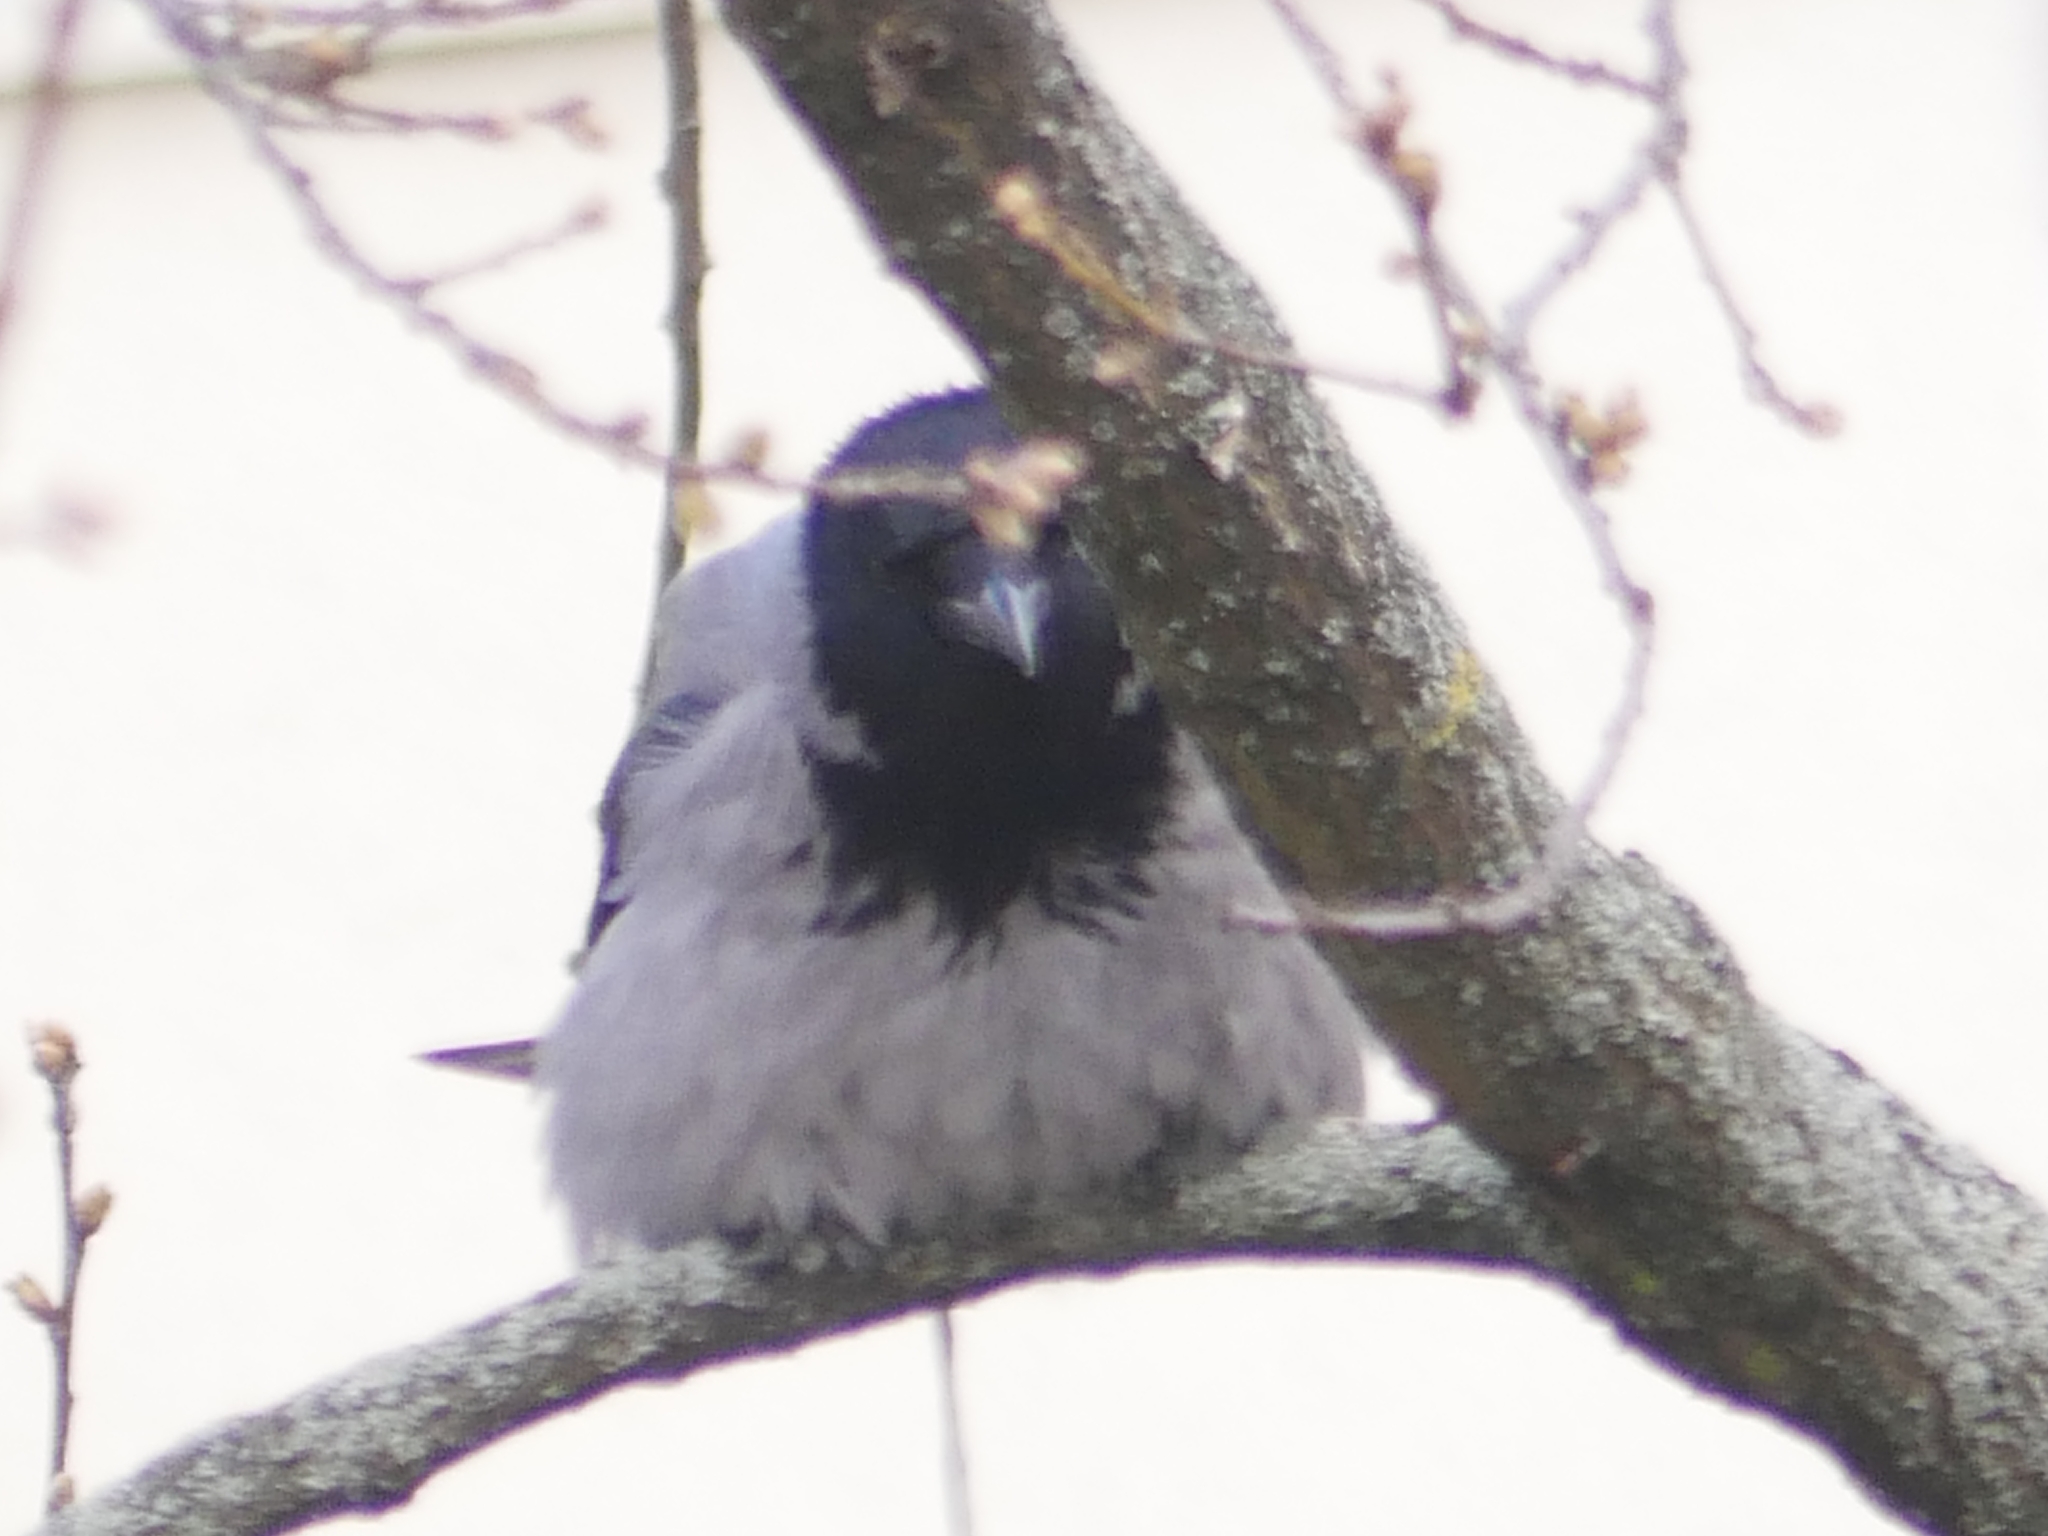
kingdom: Animalia
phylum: Chordata
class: Aves
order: Passeriformes
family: Corvidae
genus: Corvus
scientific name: Corvus cornix
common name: Hooded crow
